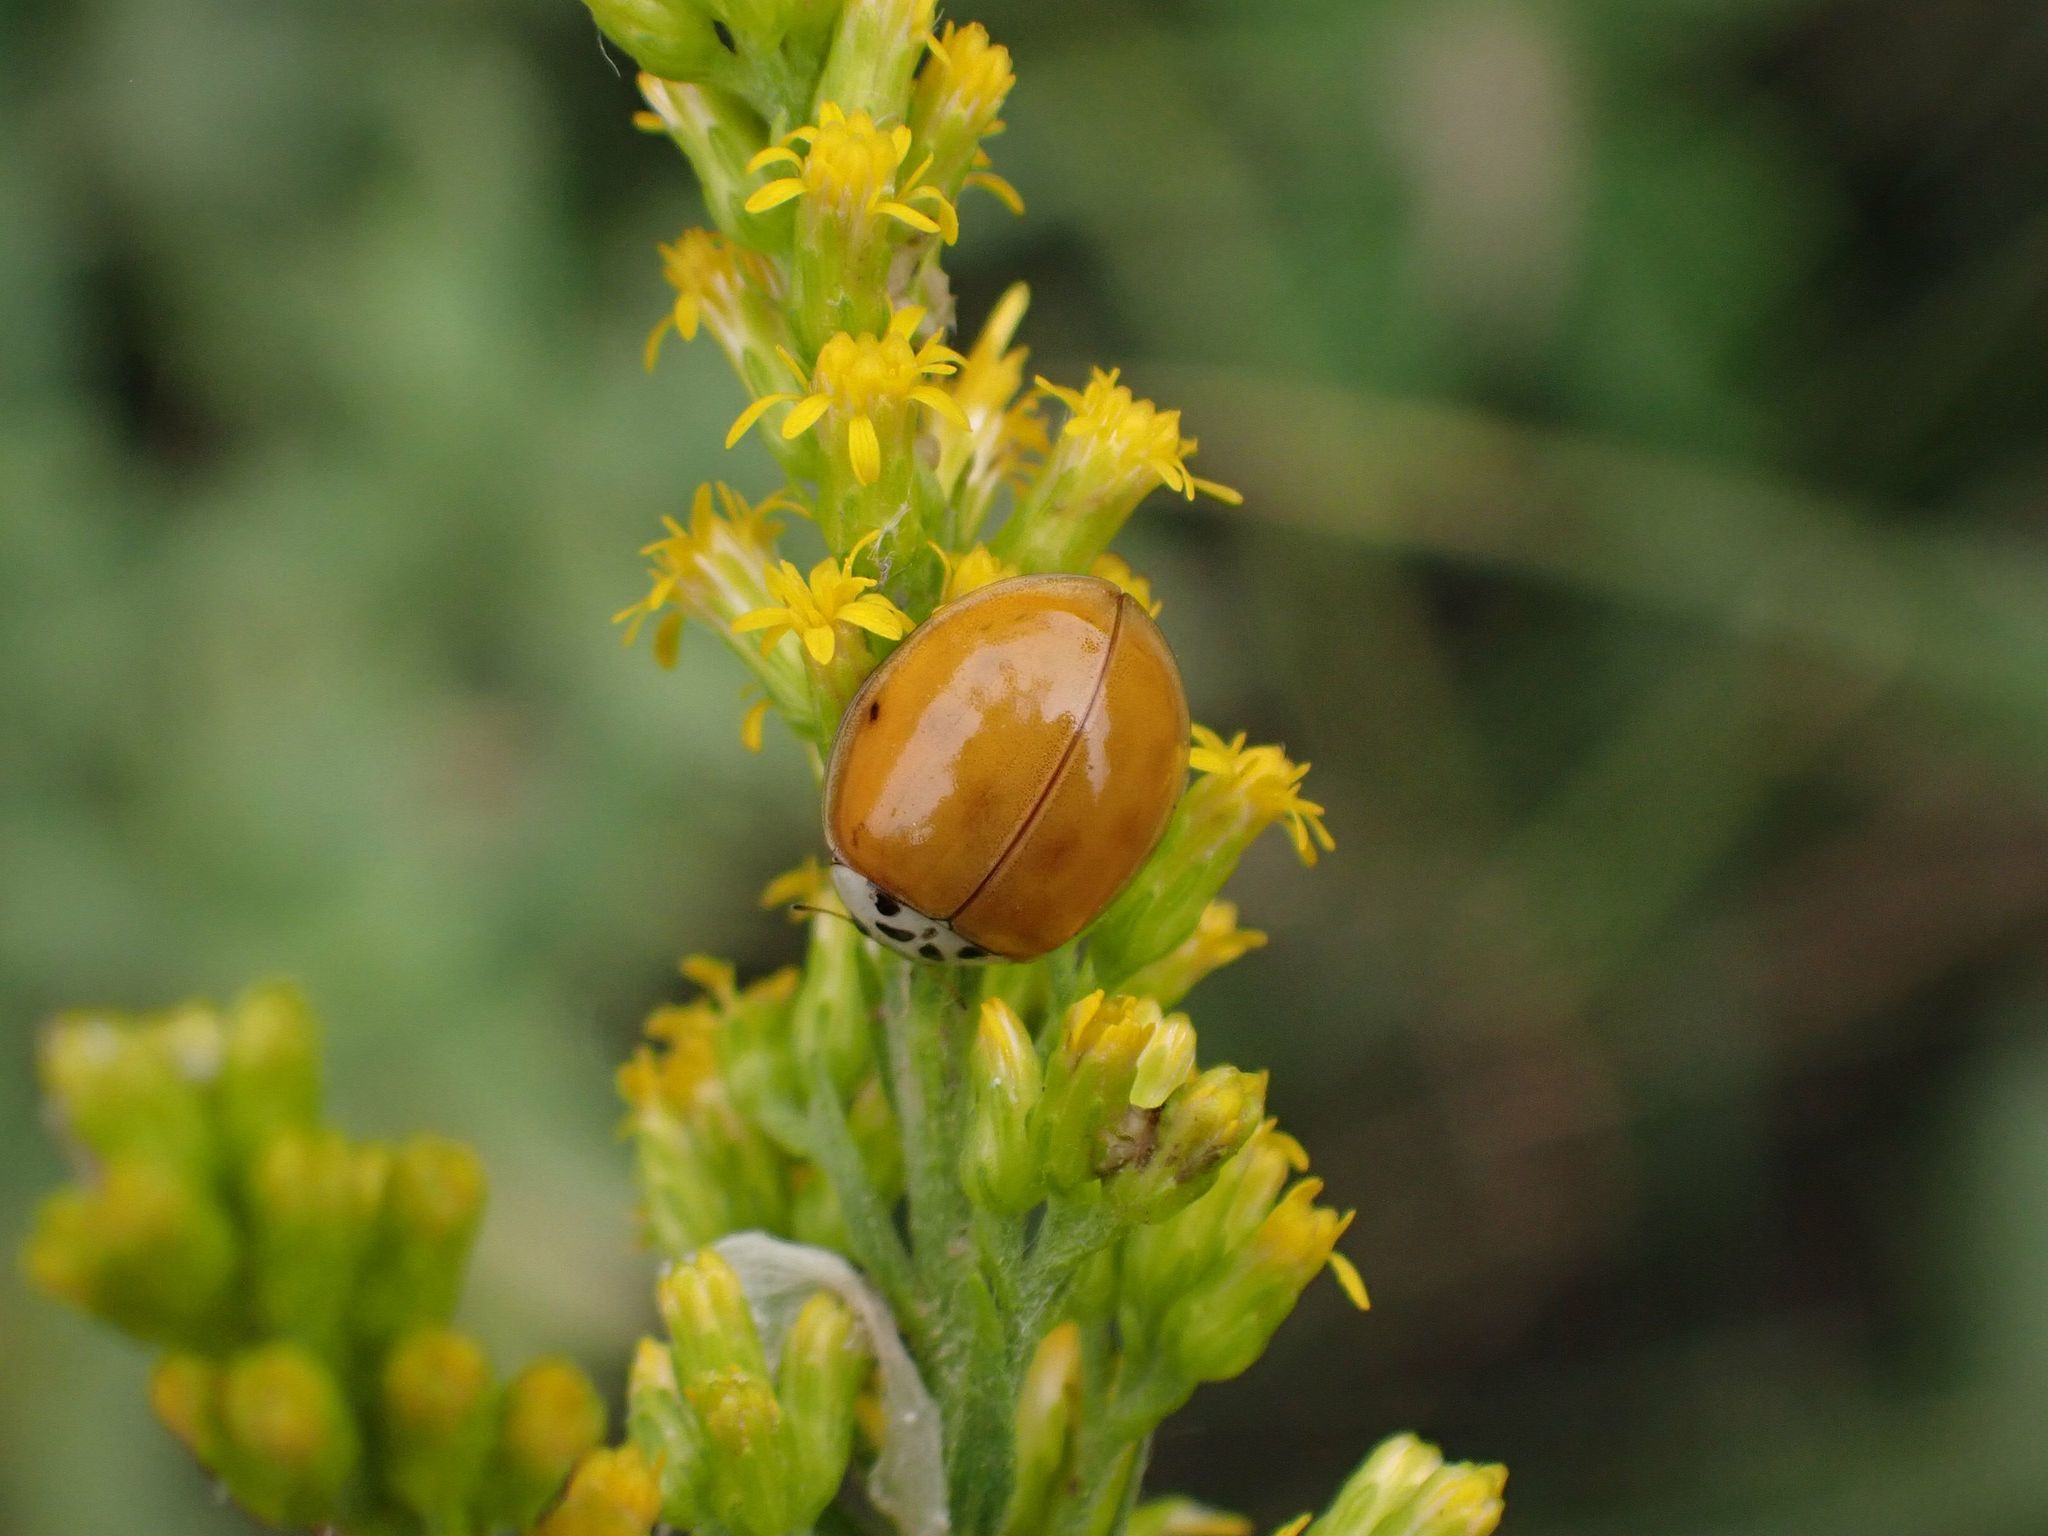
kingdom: Animalia
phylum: Arthropoda
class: Insecta
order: Coleoptera
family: Coccinellidae
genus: Harmonia
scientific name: Harmonia axyridis
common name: Harlequin ladybird
